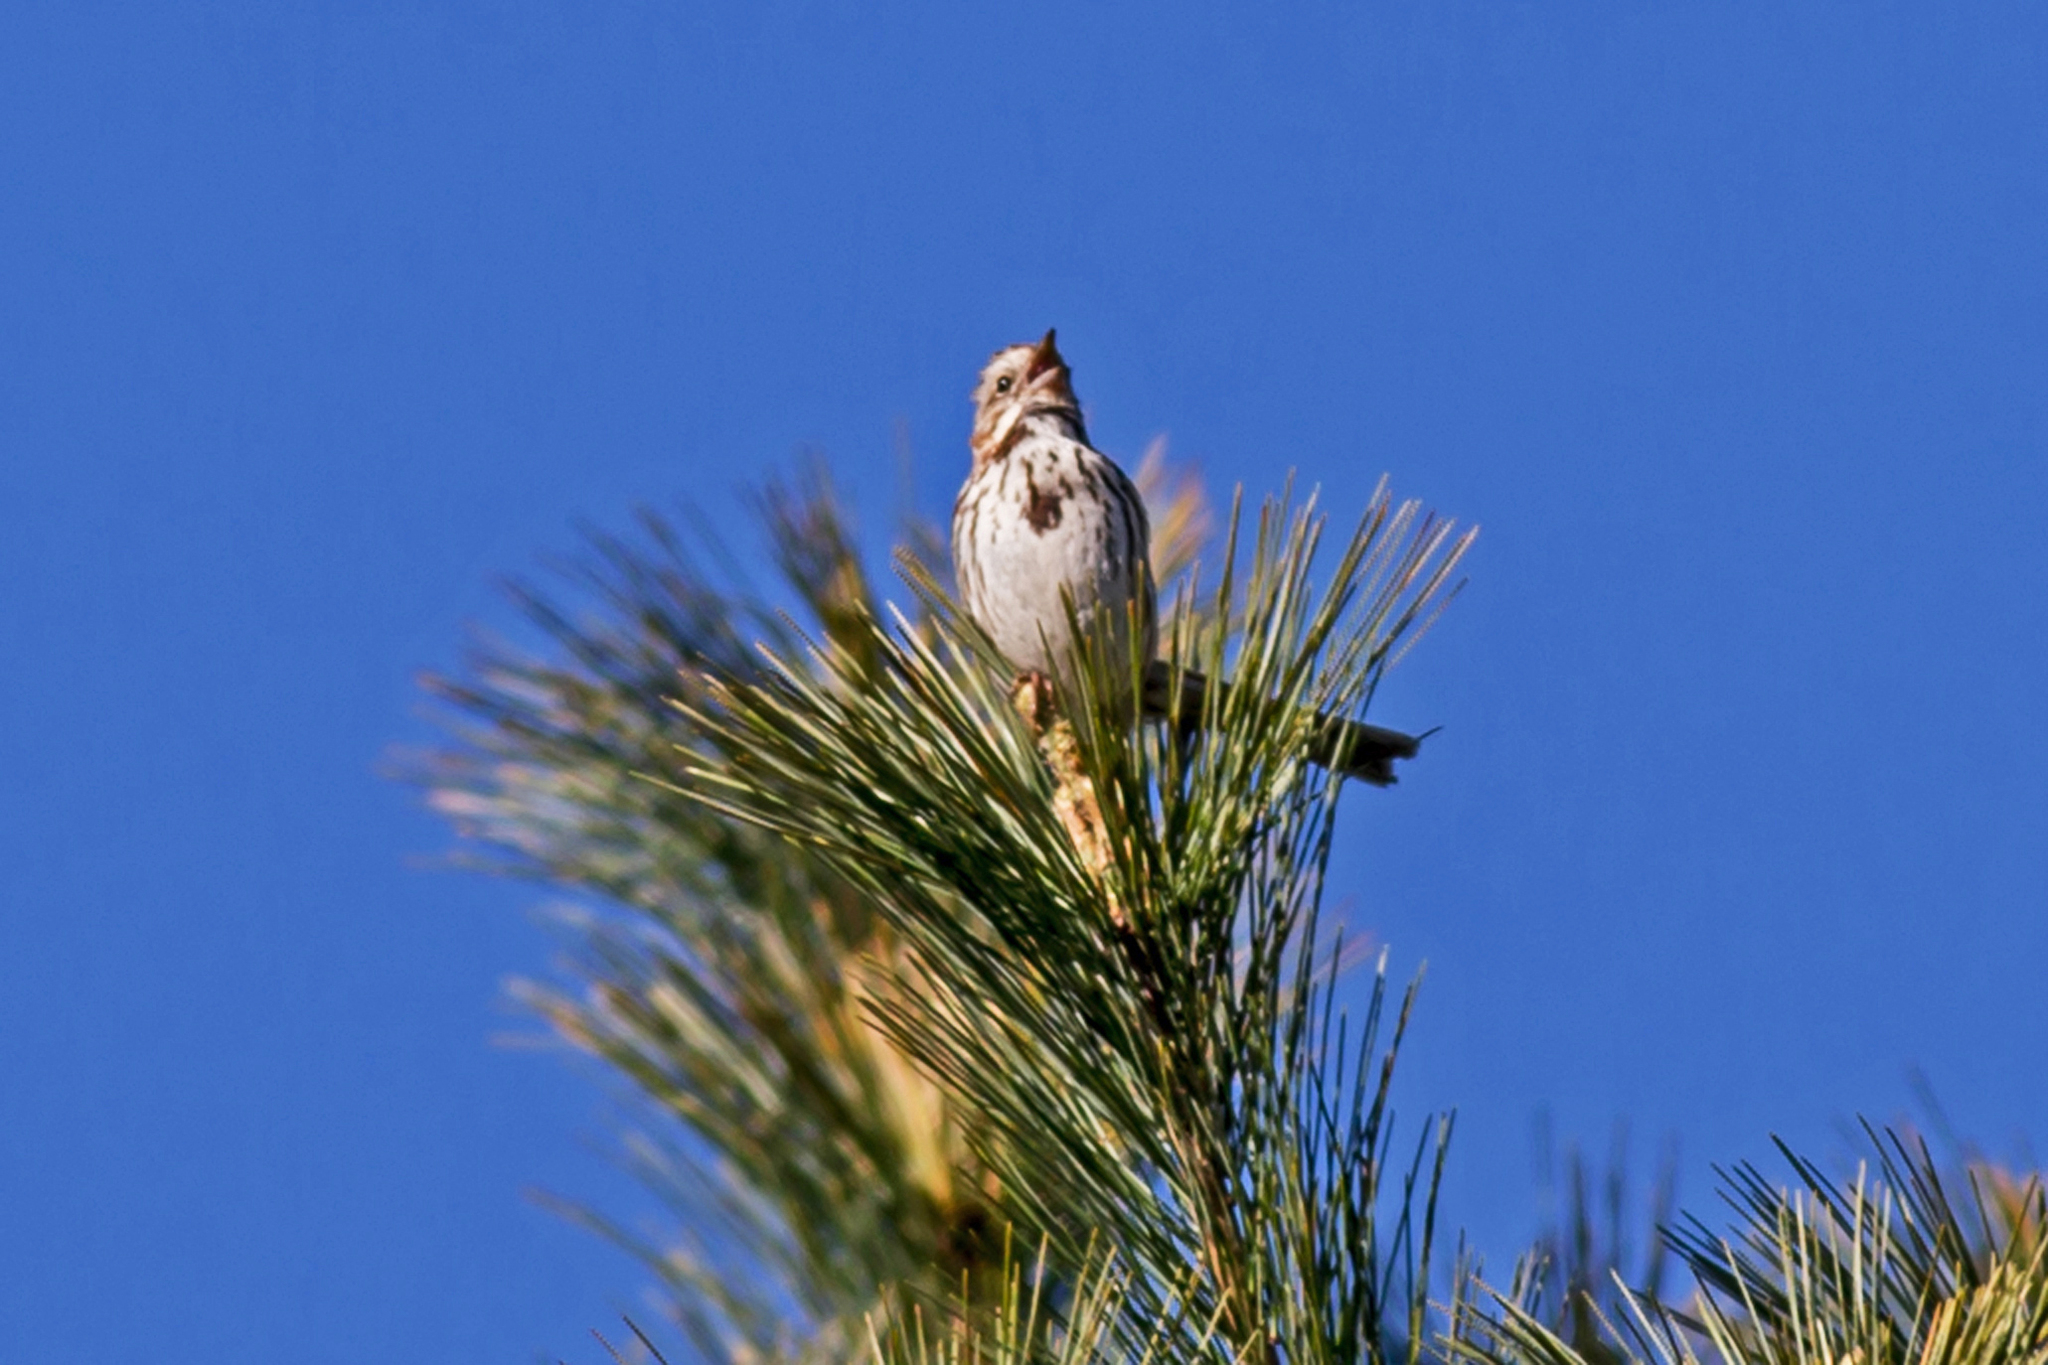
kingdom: Animalia
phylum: Chordata
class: Aves
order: Passeriformes
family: Passerellidae
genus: Melospiza
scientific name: Melospiza melodia
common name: Song sparrow
